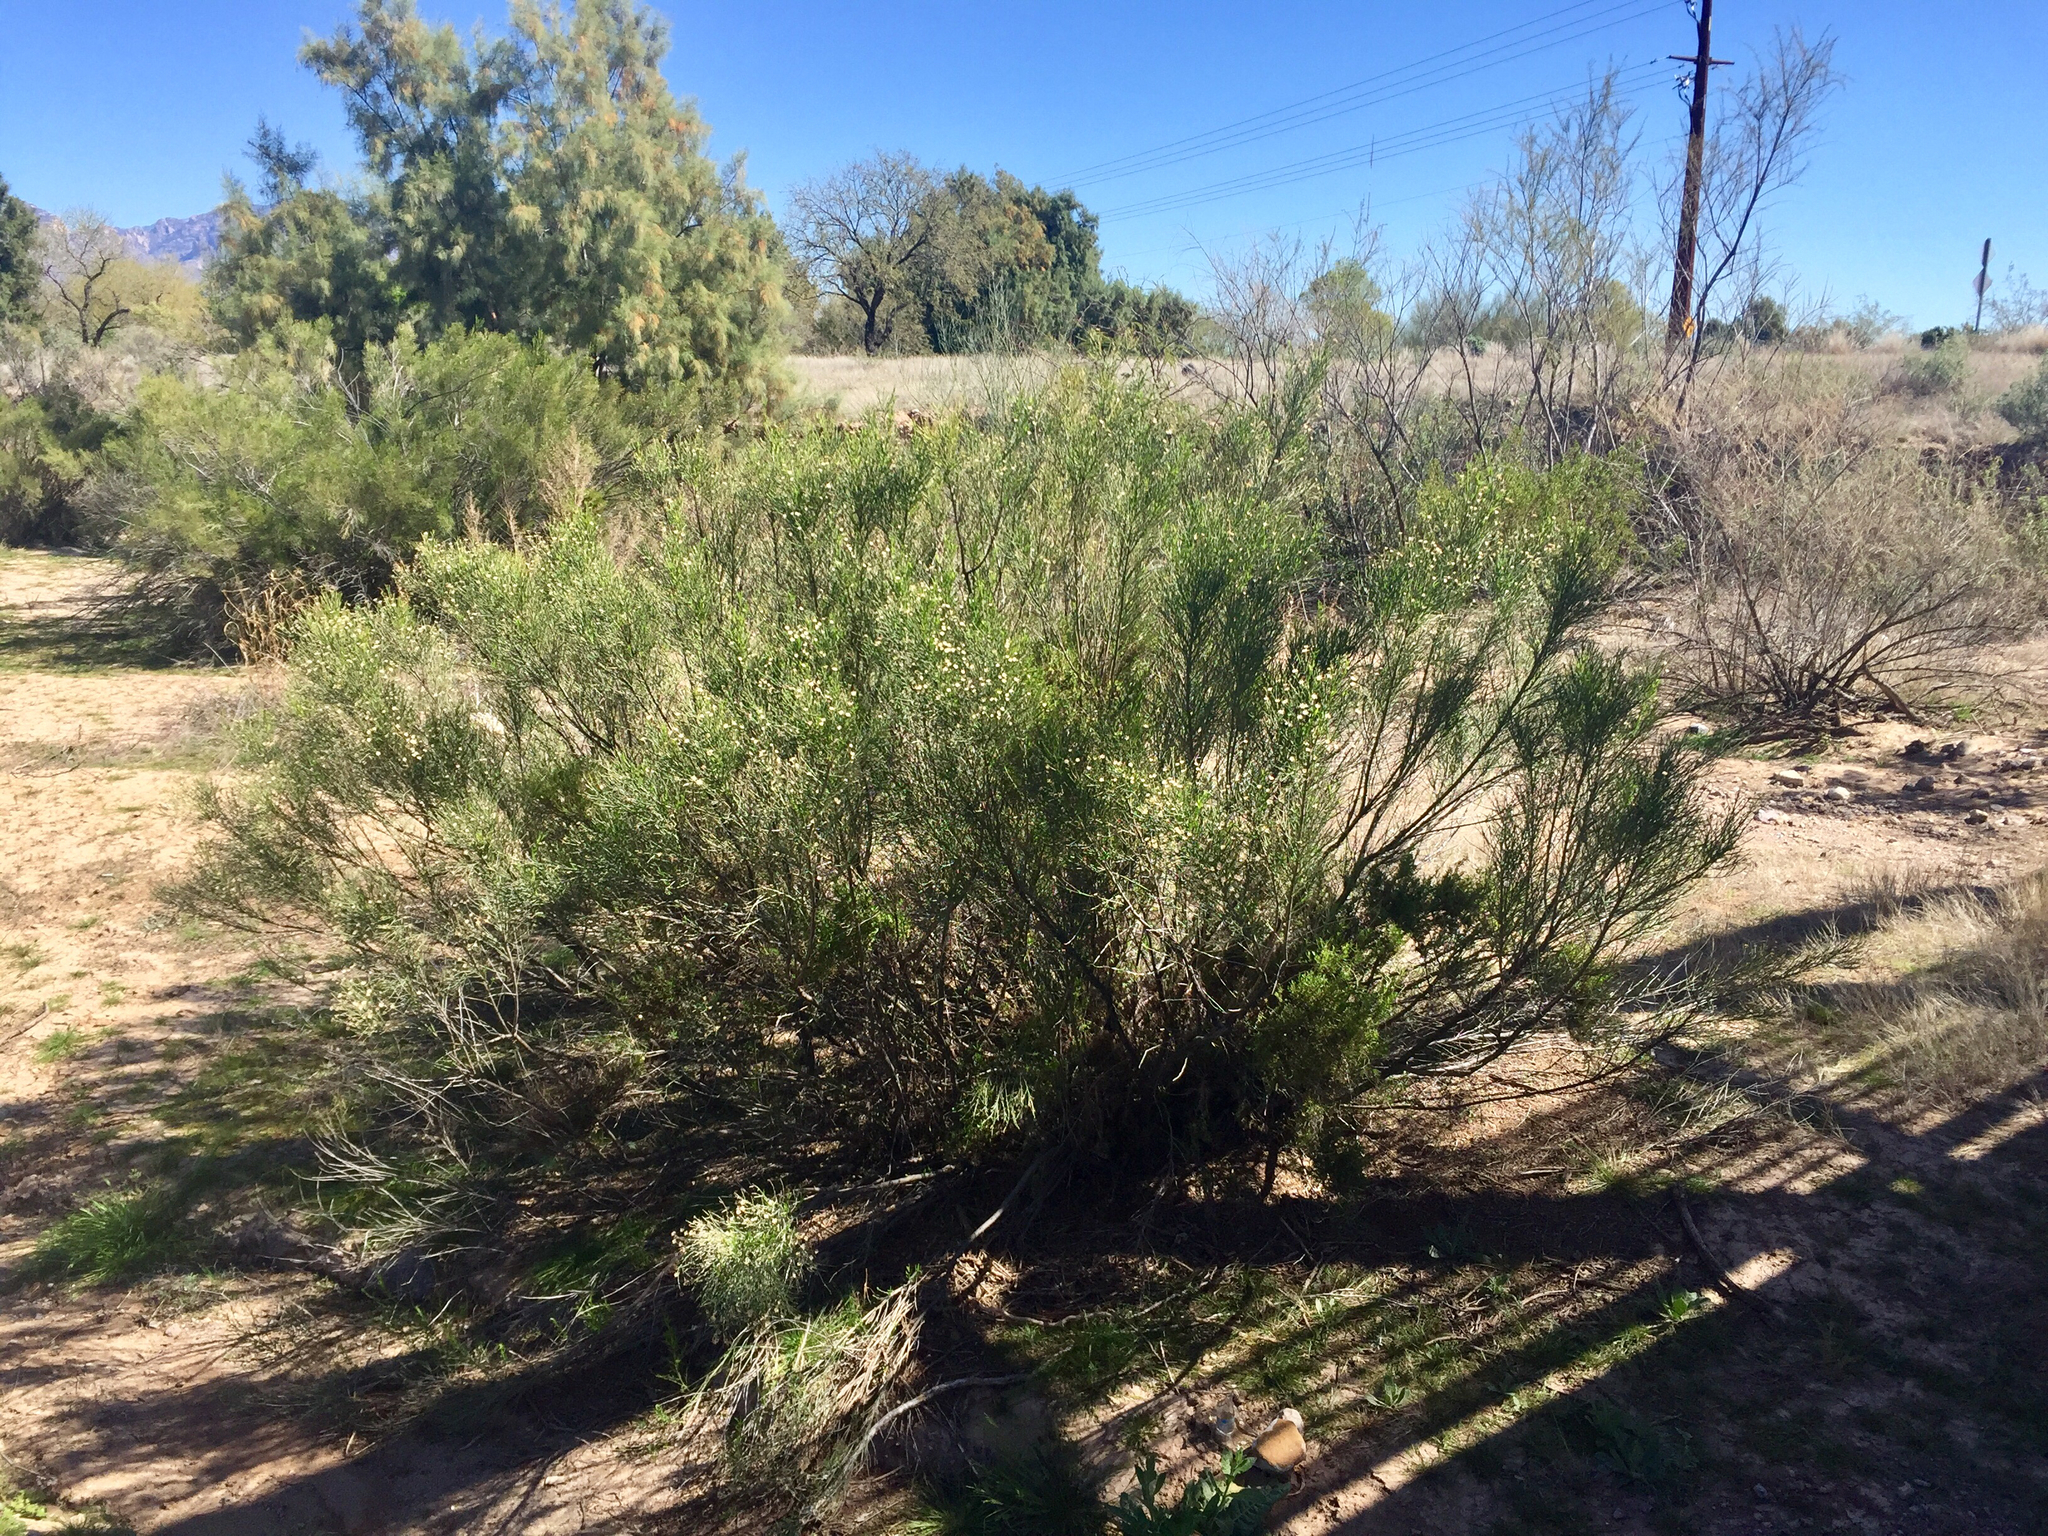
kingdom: Plantae
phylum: Tracheophyta
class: Magnoliopsida
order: Asterales
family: Asteraceae
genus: Baccharis
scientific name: Baccharis sarothroides
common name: Desert-broom
